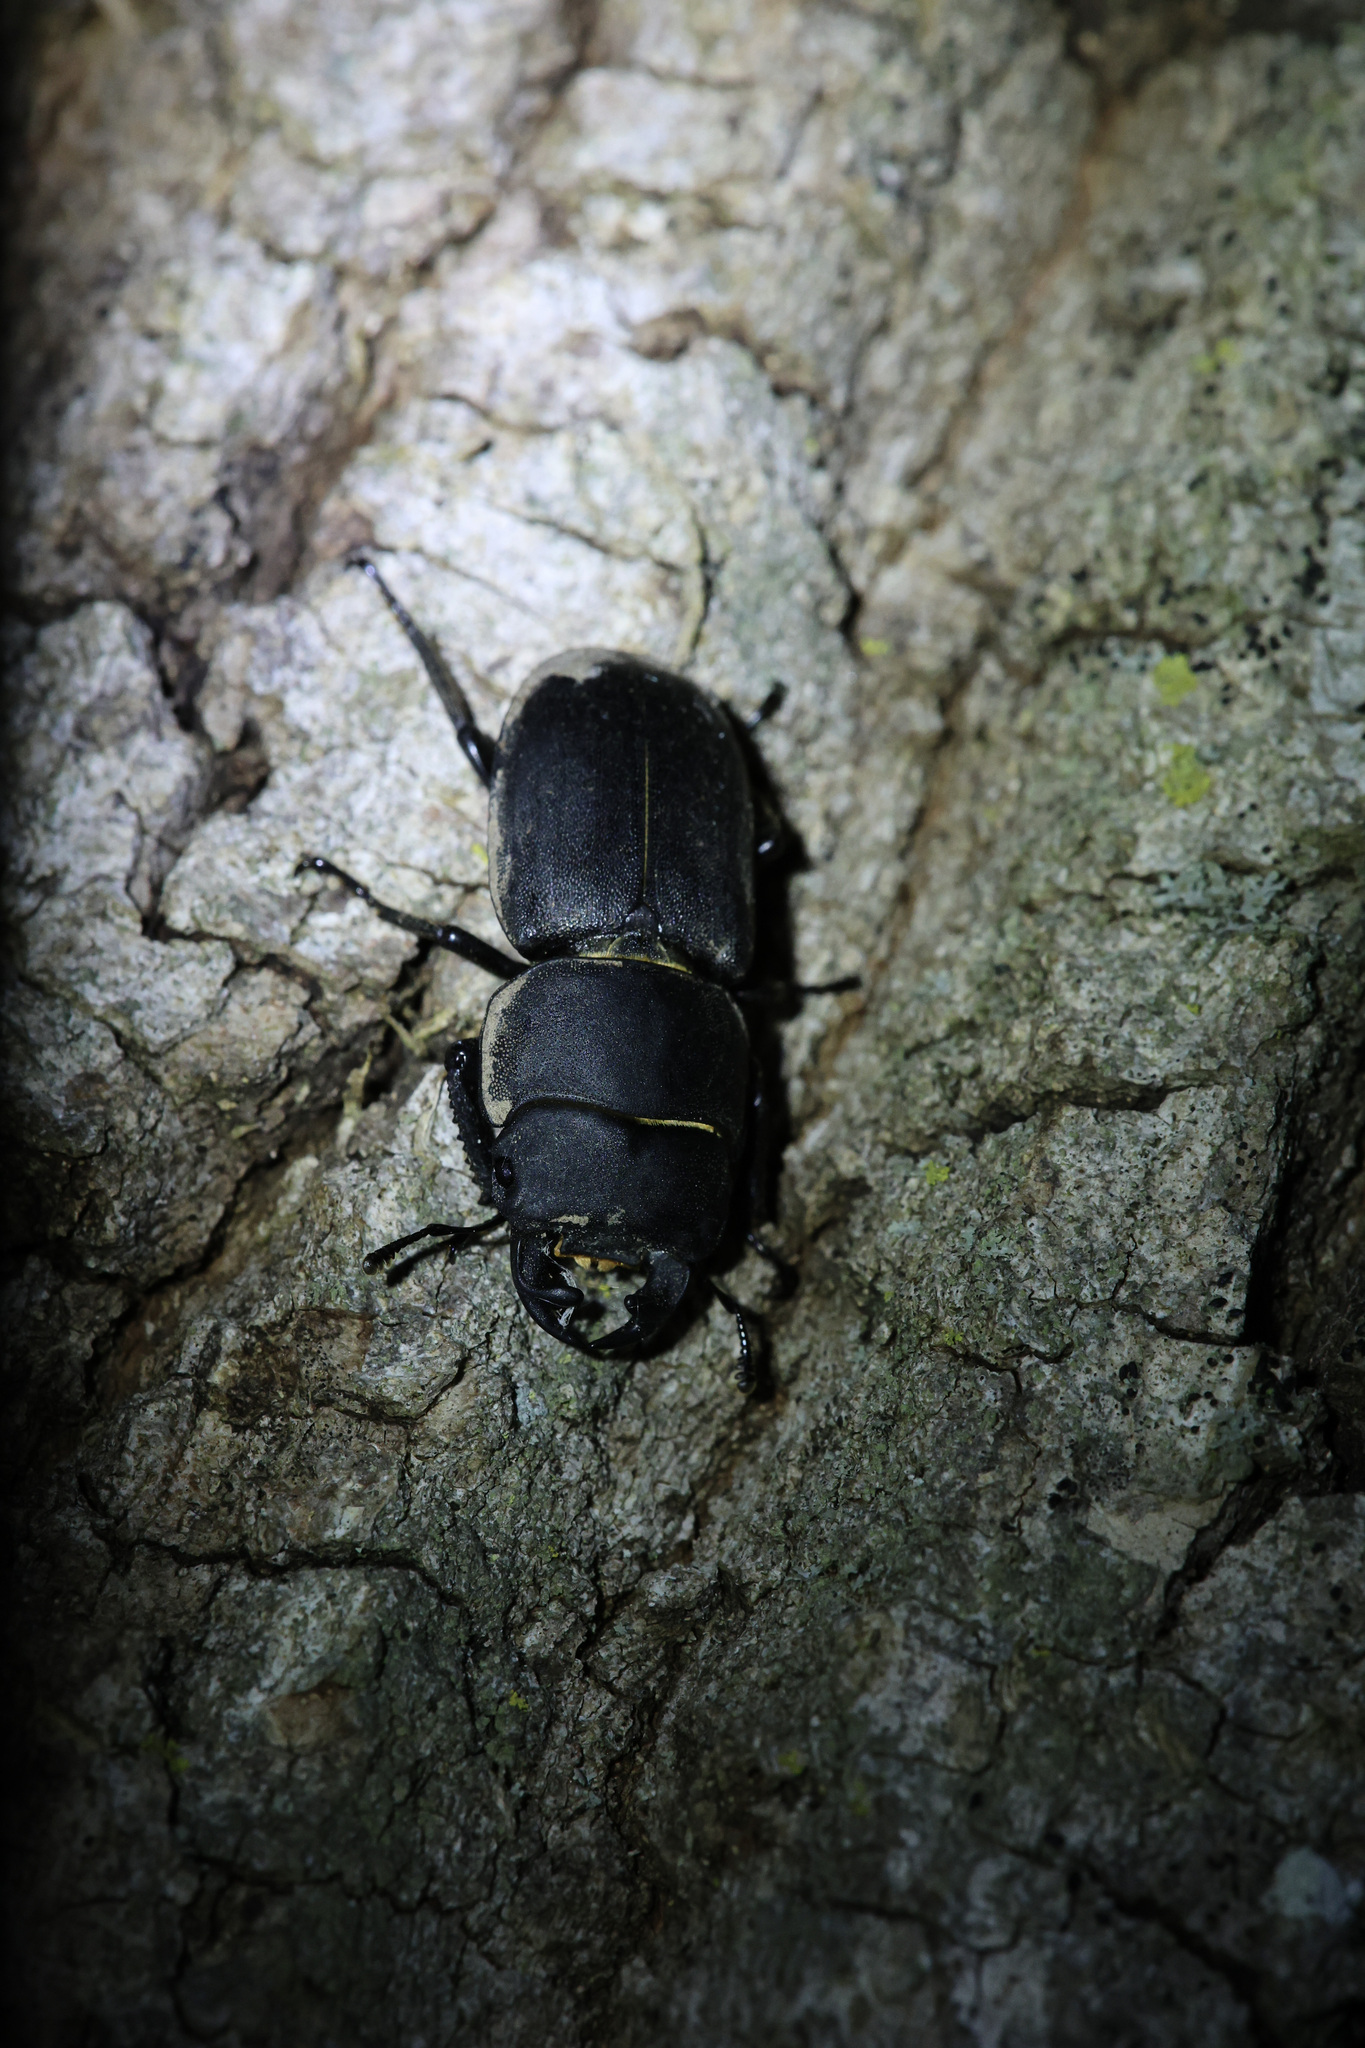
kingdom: Animalia
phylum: Arthropoda
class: Insecta
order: Coleoptera
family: Lucanidae
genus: Dorcus
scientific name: Dorcus parallelipipedus
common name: Lesser stag beetle
